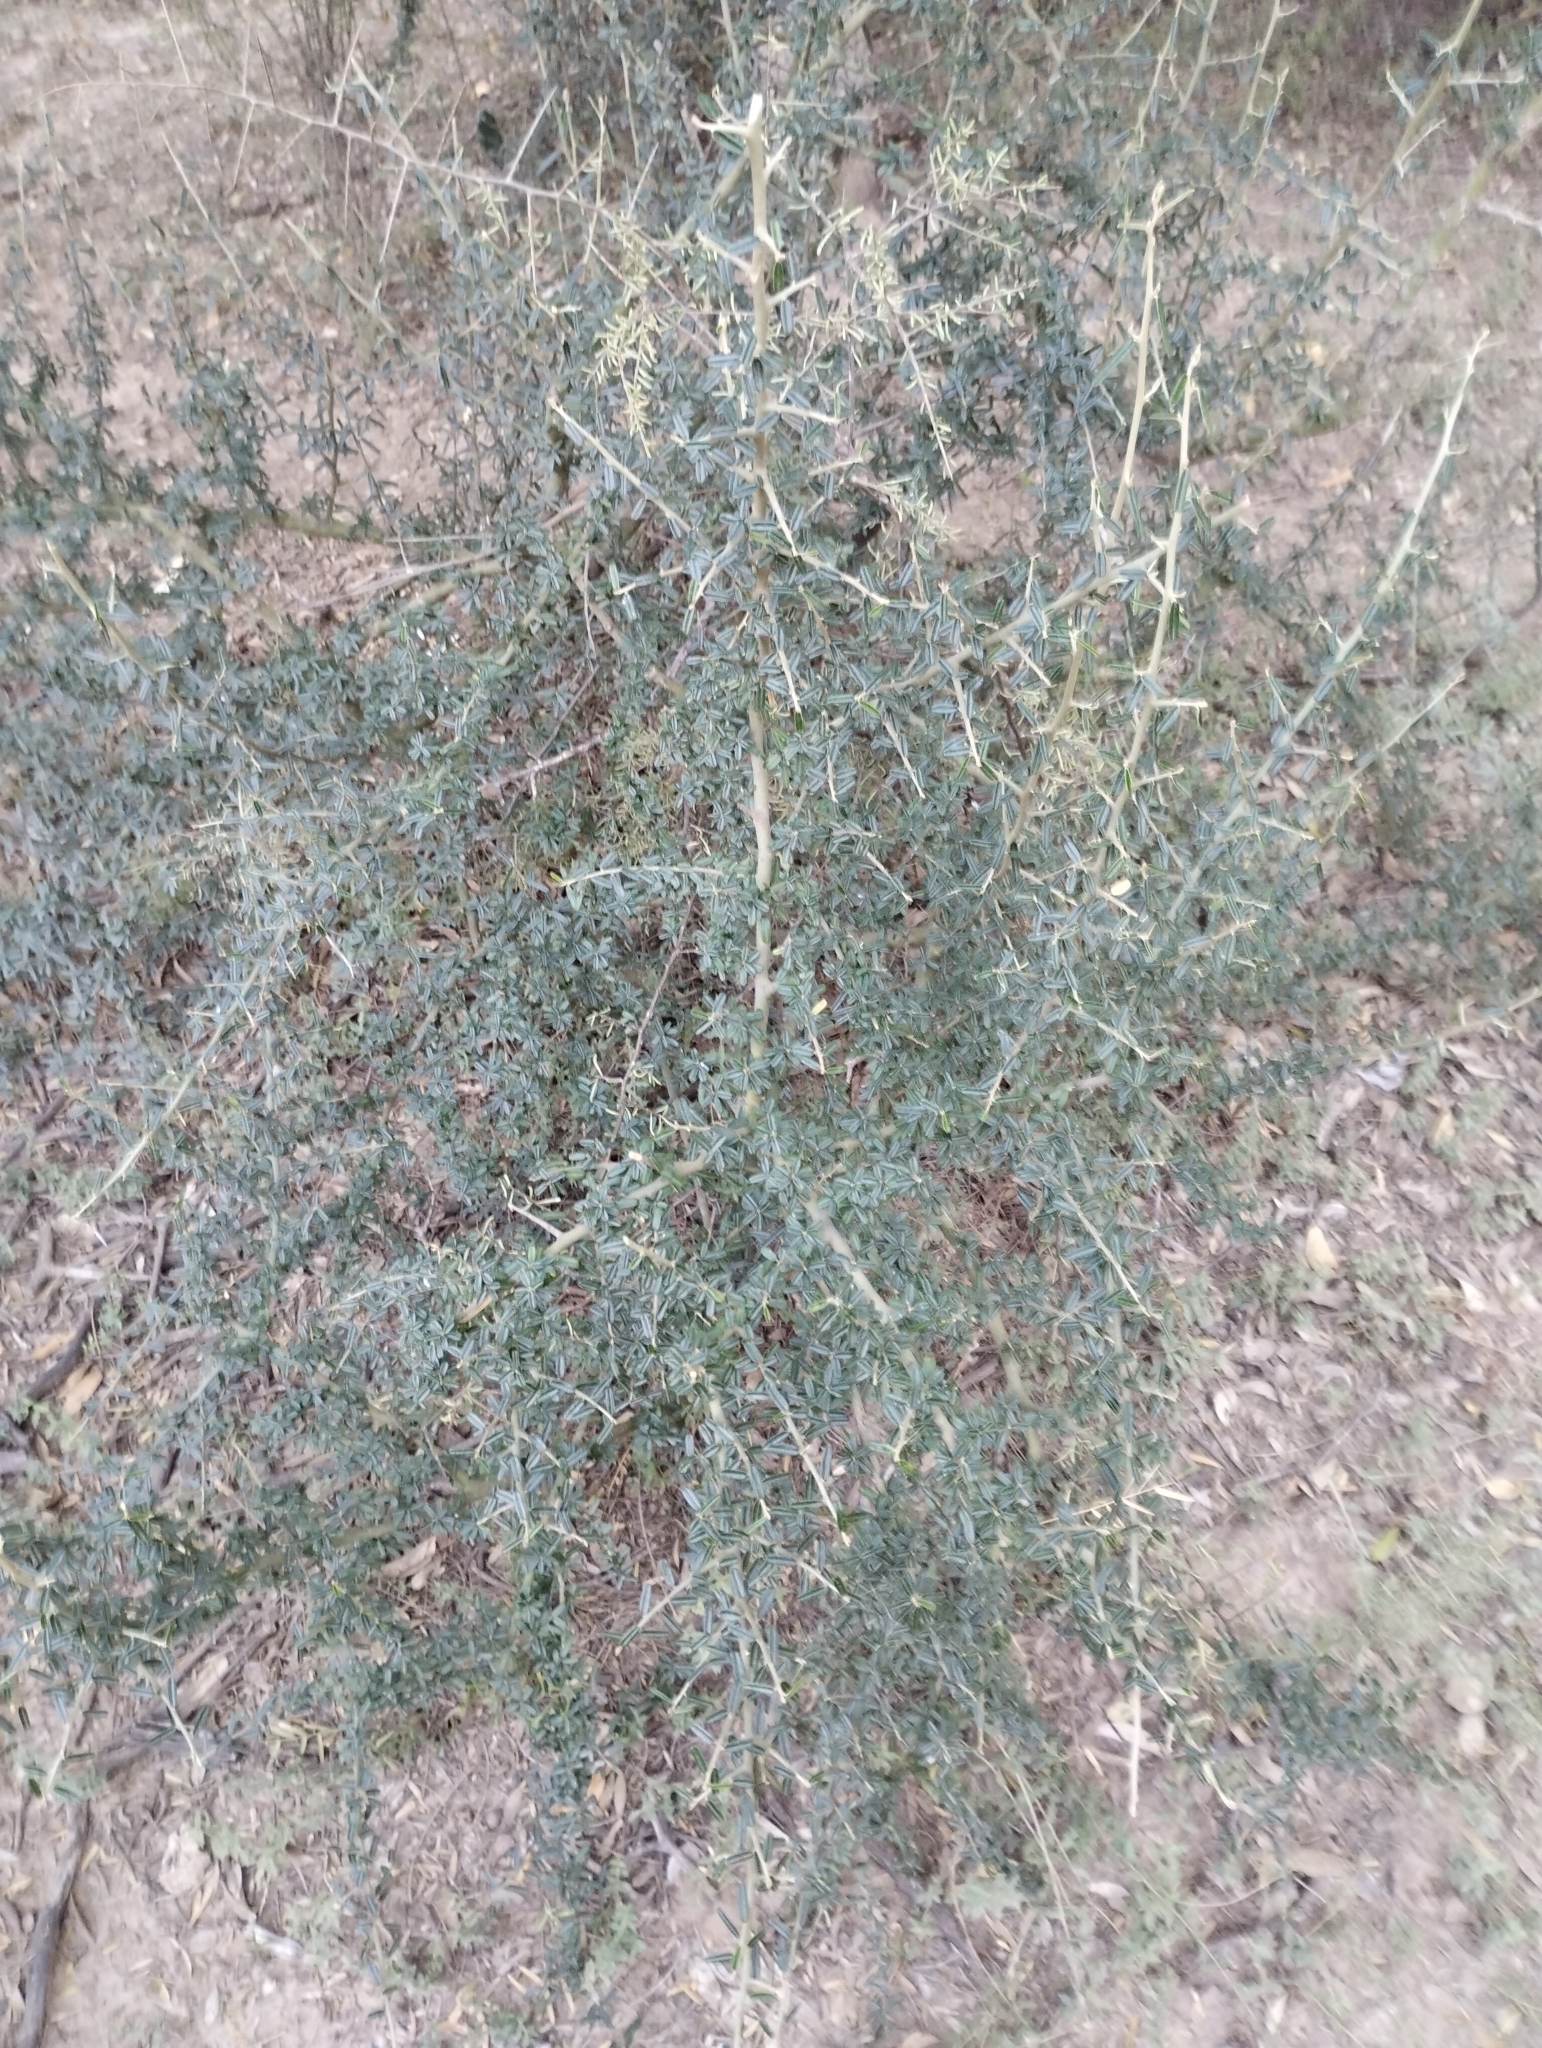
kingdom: Plantae
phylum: Tracheophyta
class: Magnoliopsida
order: Brassicales
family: Capparaceae
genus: Atamisquea
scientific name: Atamisquea emarginata
